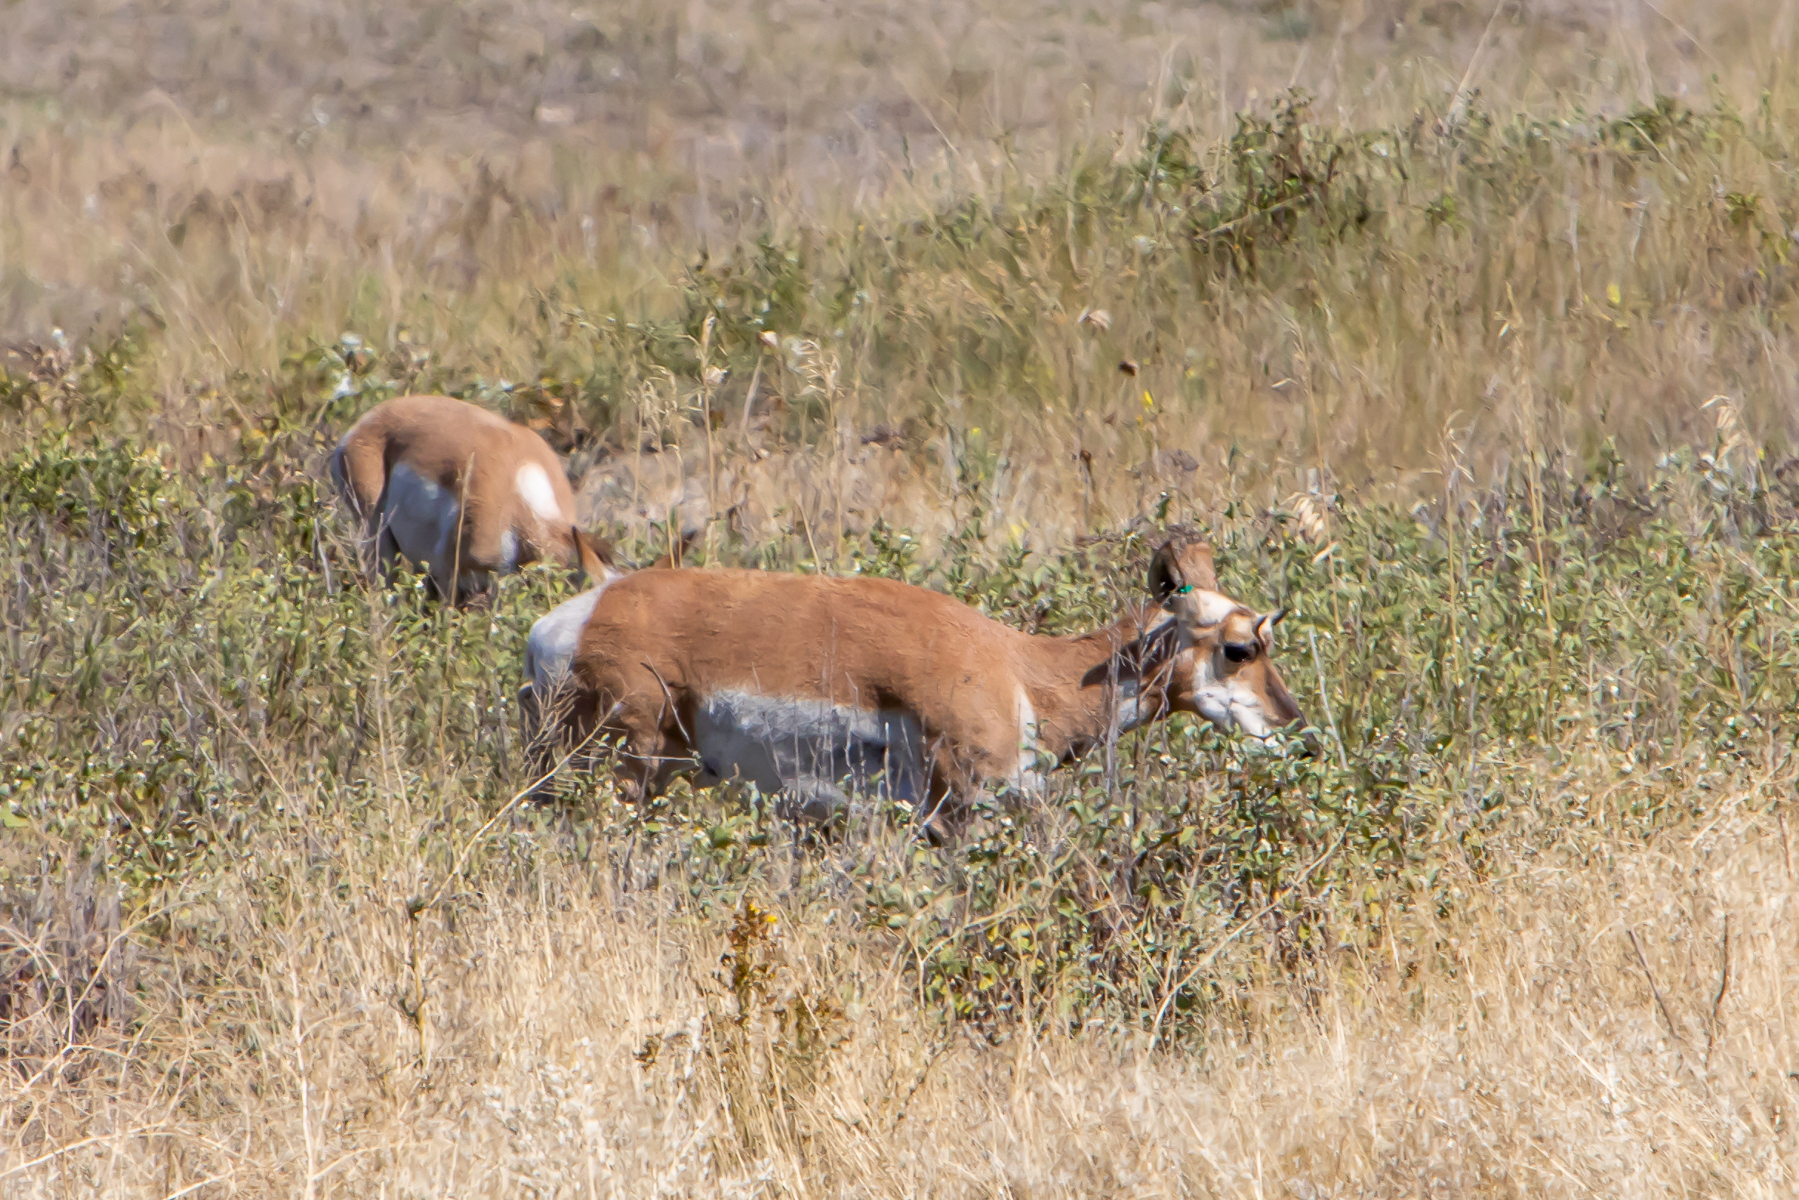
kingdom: Animalia
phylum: Chordata
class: Mammalia
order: Artiodactyla
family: Antilocapridae
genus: Antilocapra
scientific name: Antilocapra americana
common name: Pronghorn
